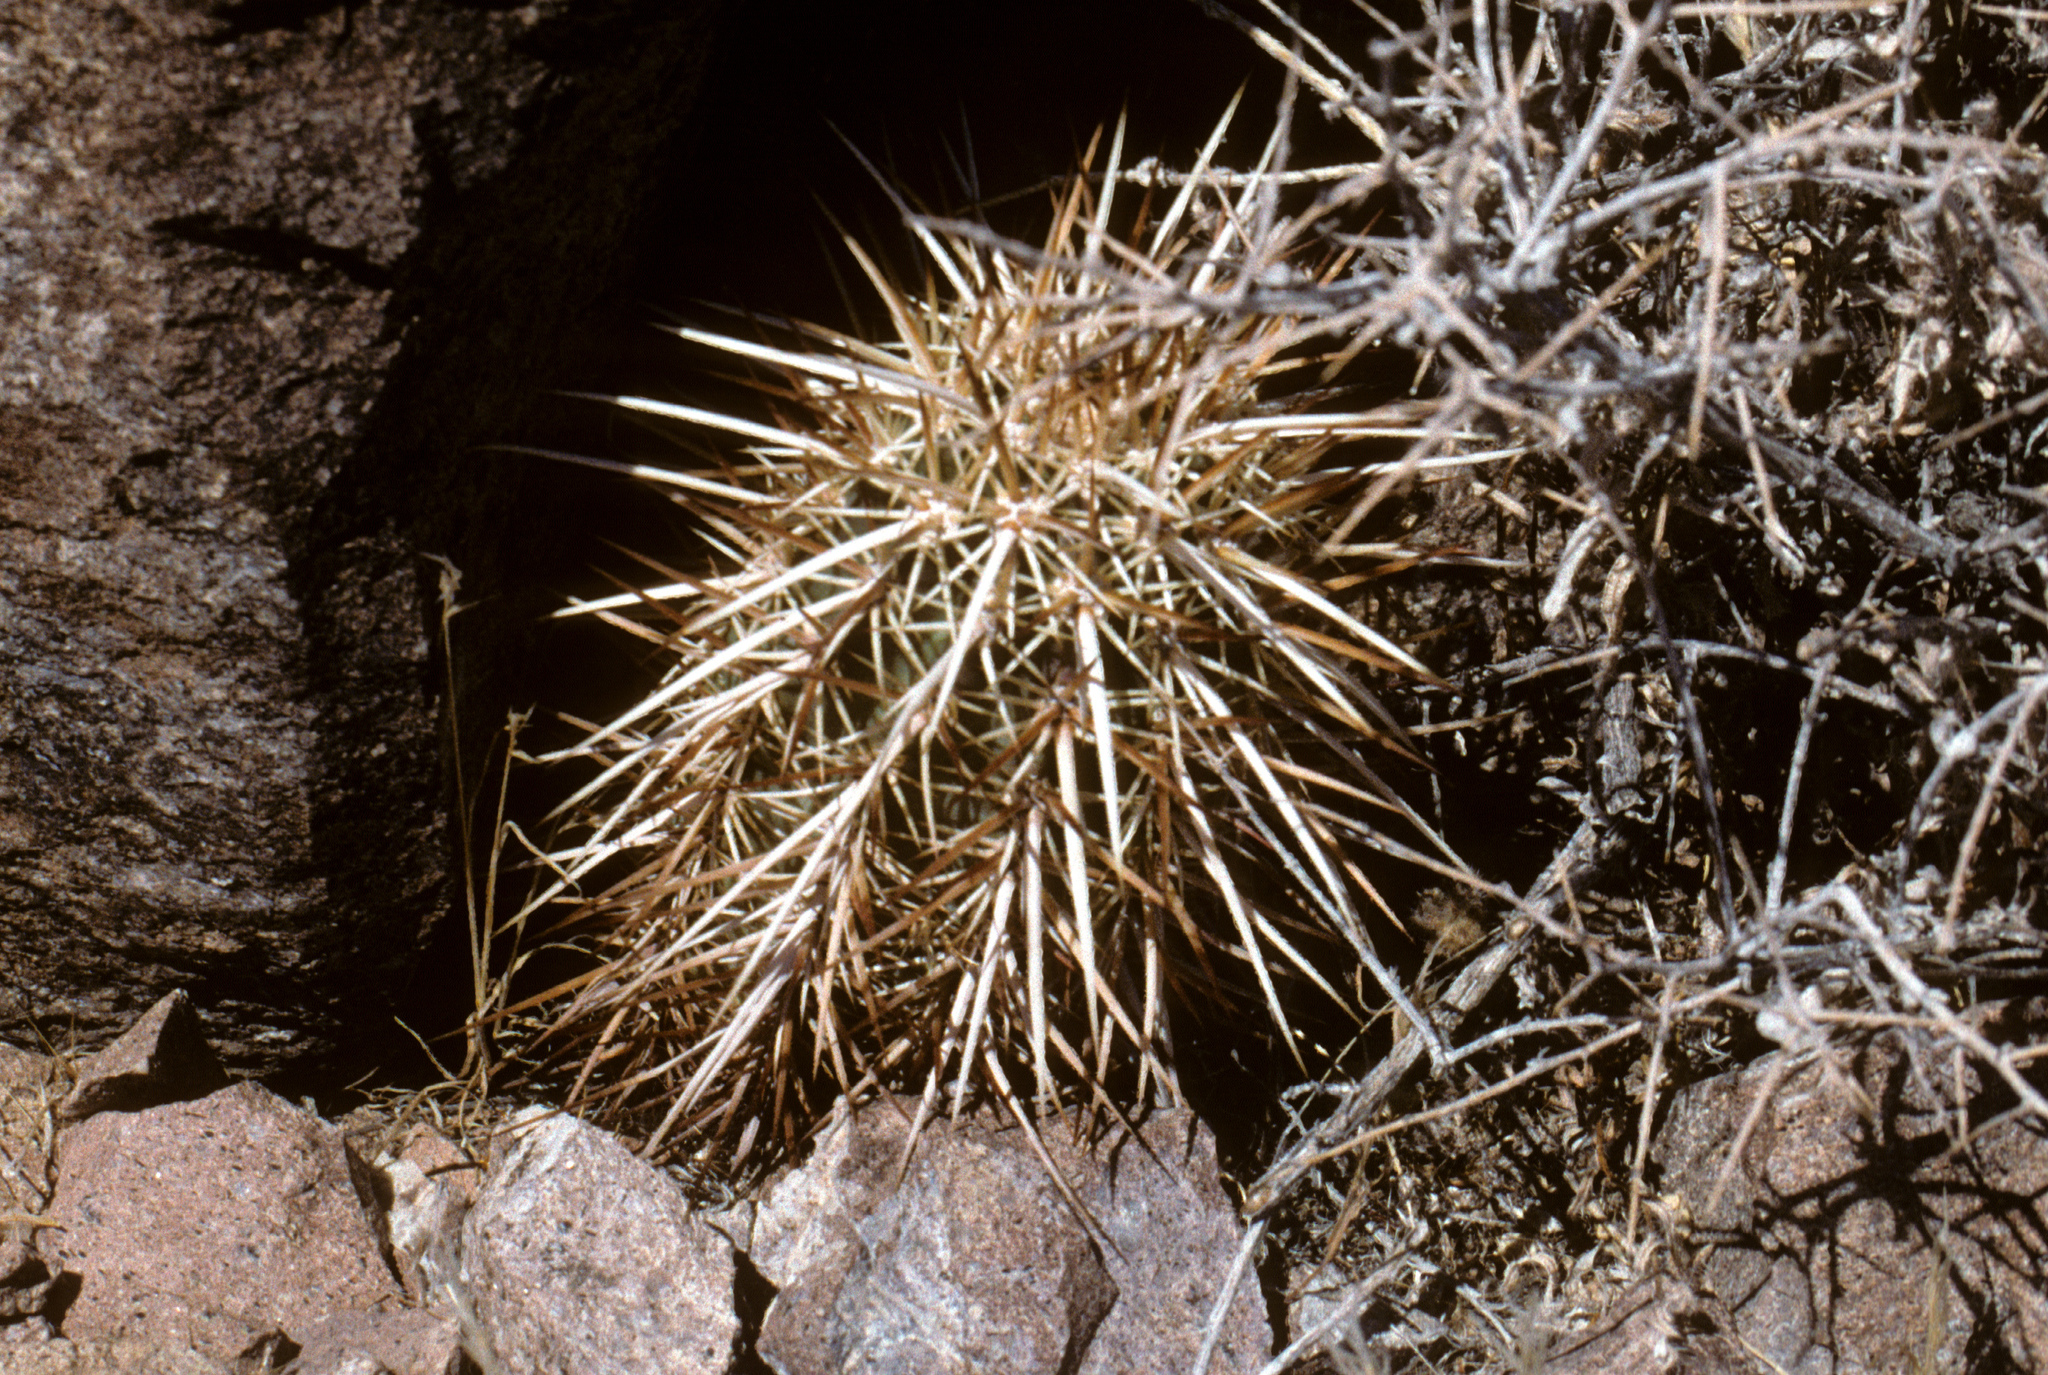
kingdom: Plantae
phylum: Tracheophyta
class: Magnoliopsida
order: Caryophyllales
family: Cactaceae
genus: Echinocereus
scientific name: Echinocereus engelmannii
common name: Engelmann's hedgehog cactus
